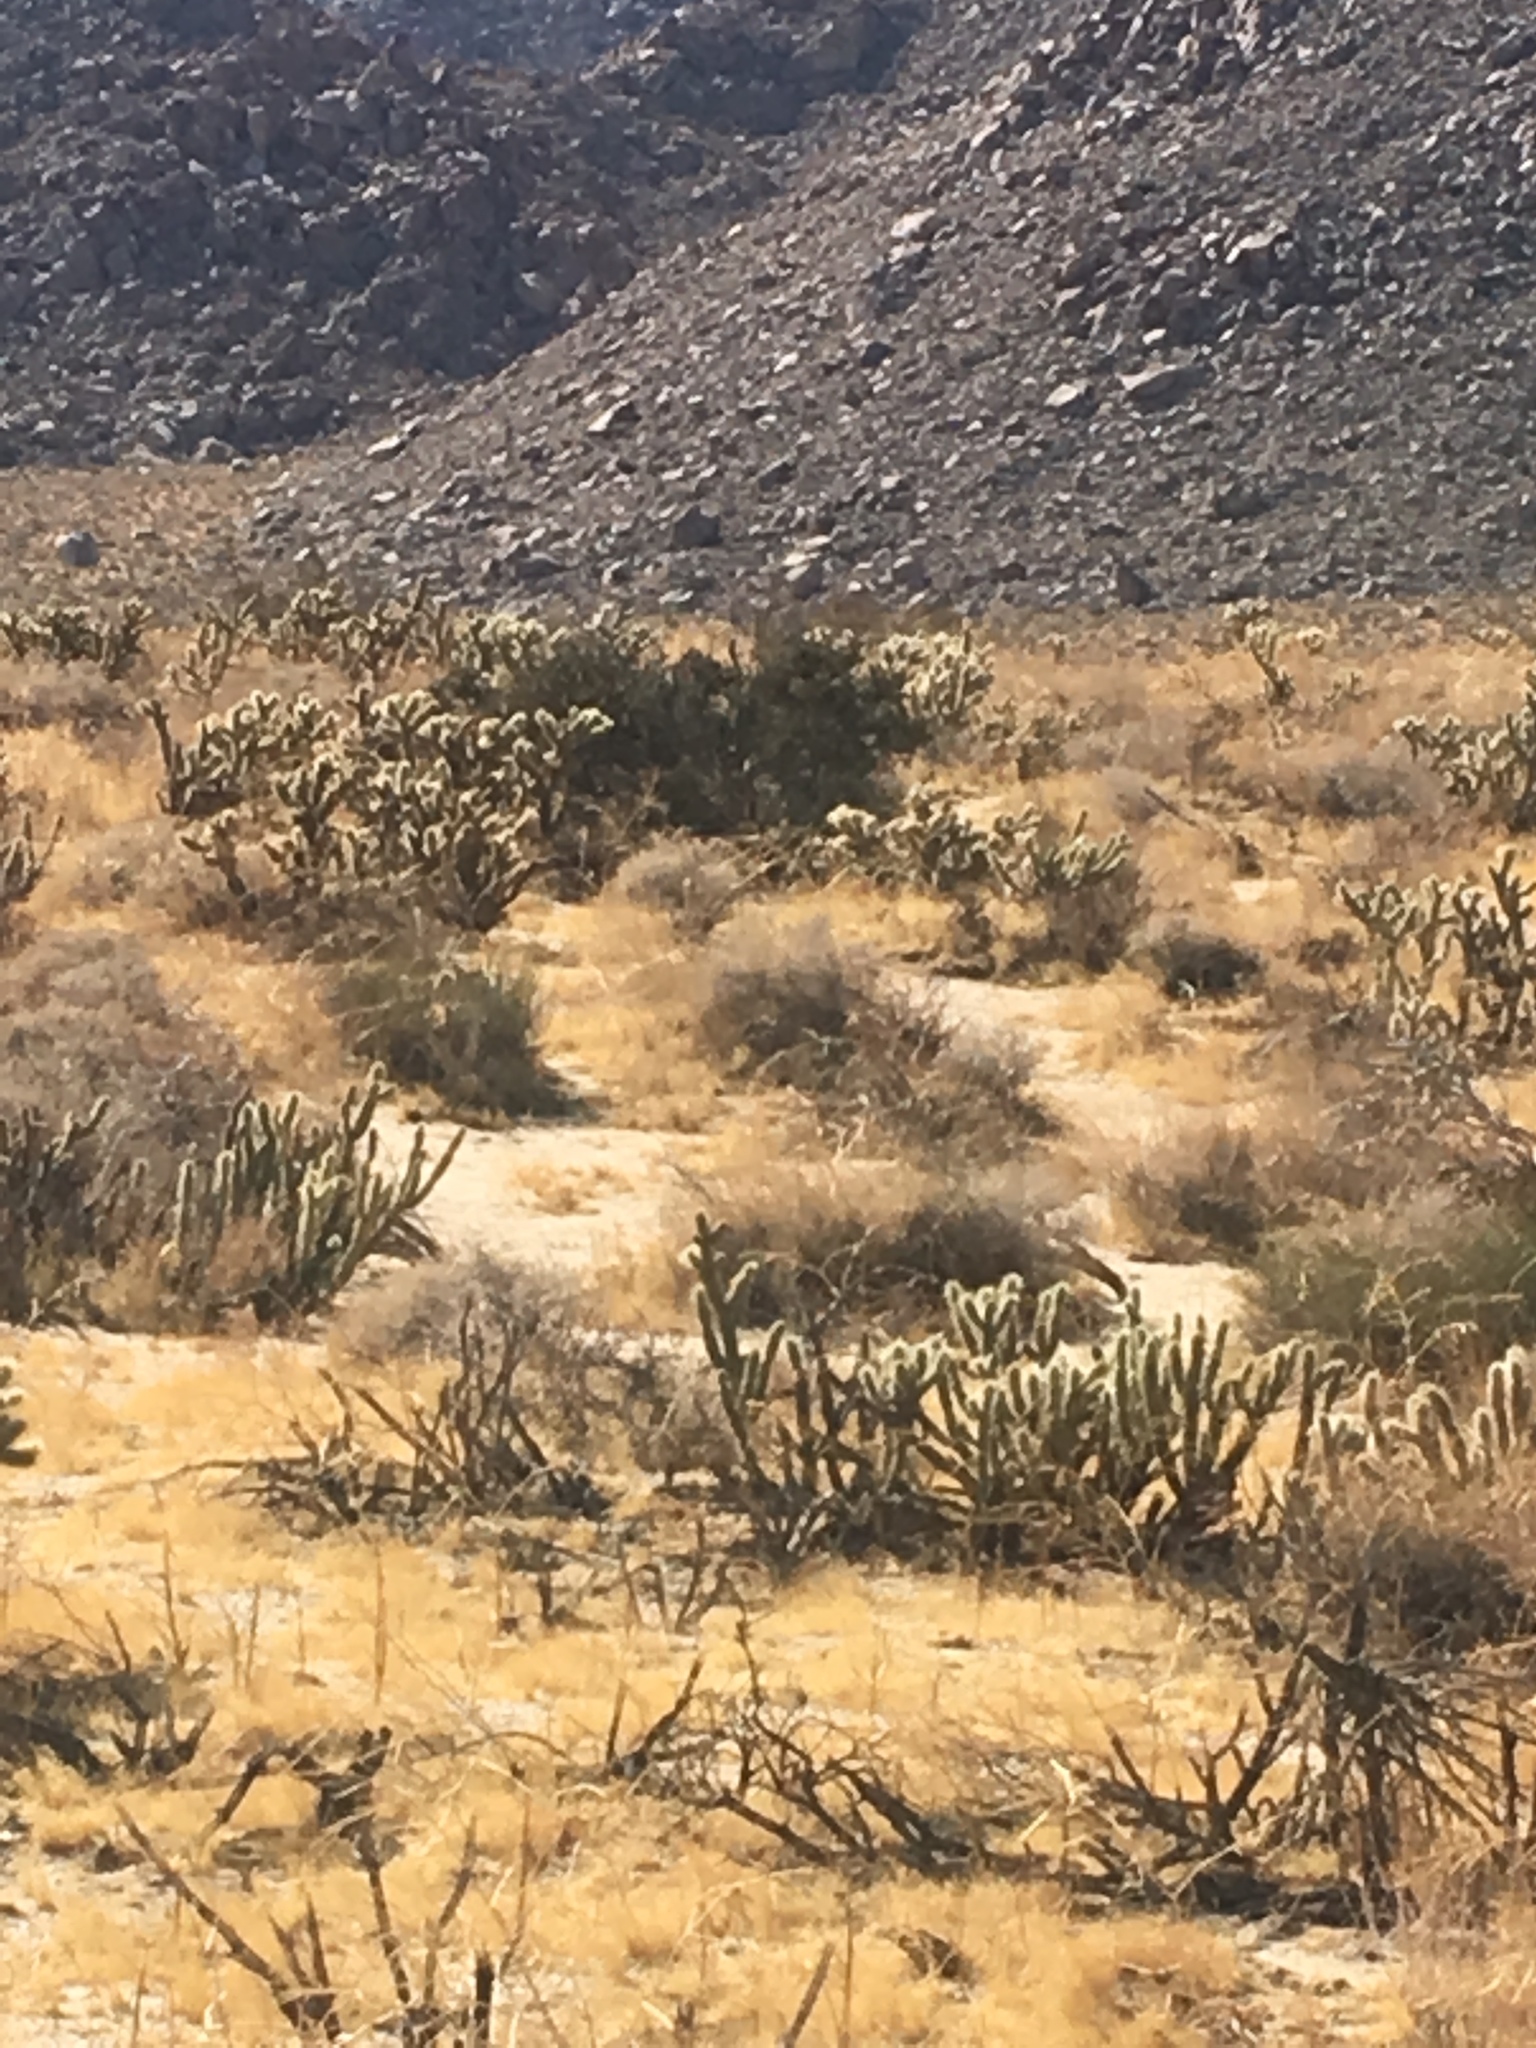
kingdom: Animalia
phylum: Chordata
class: Aves
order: Passeriformes
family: Mimidae
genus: Toxostoma
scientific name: Toxostoma lecontei
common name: Le conte's thrasher
